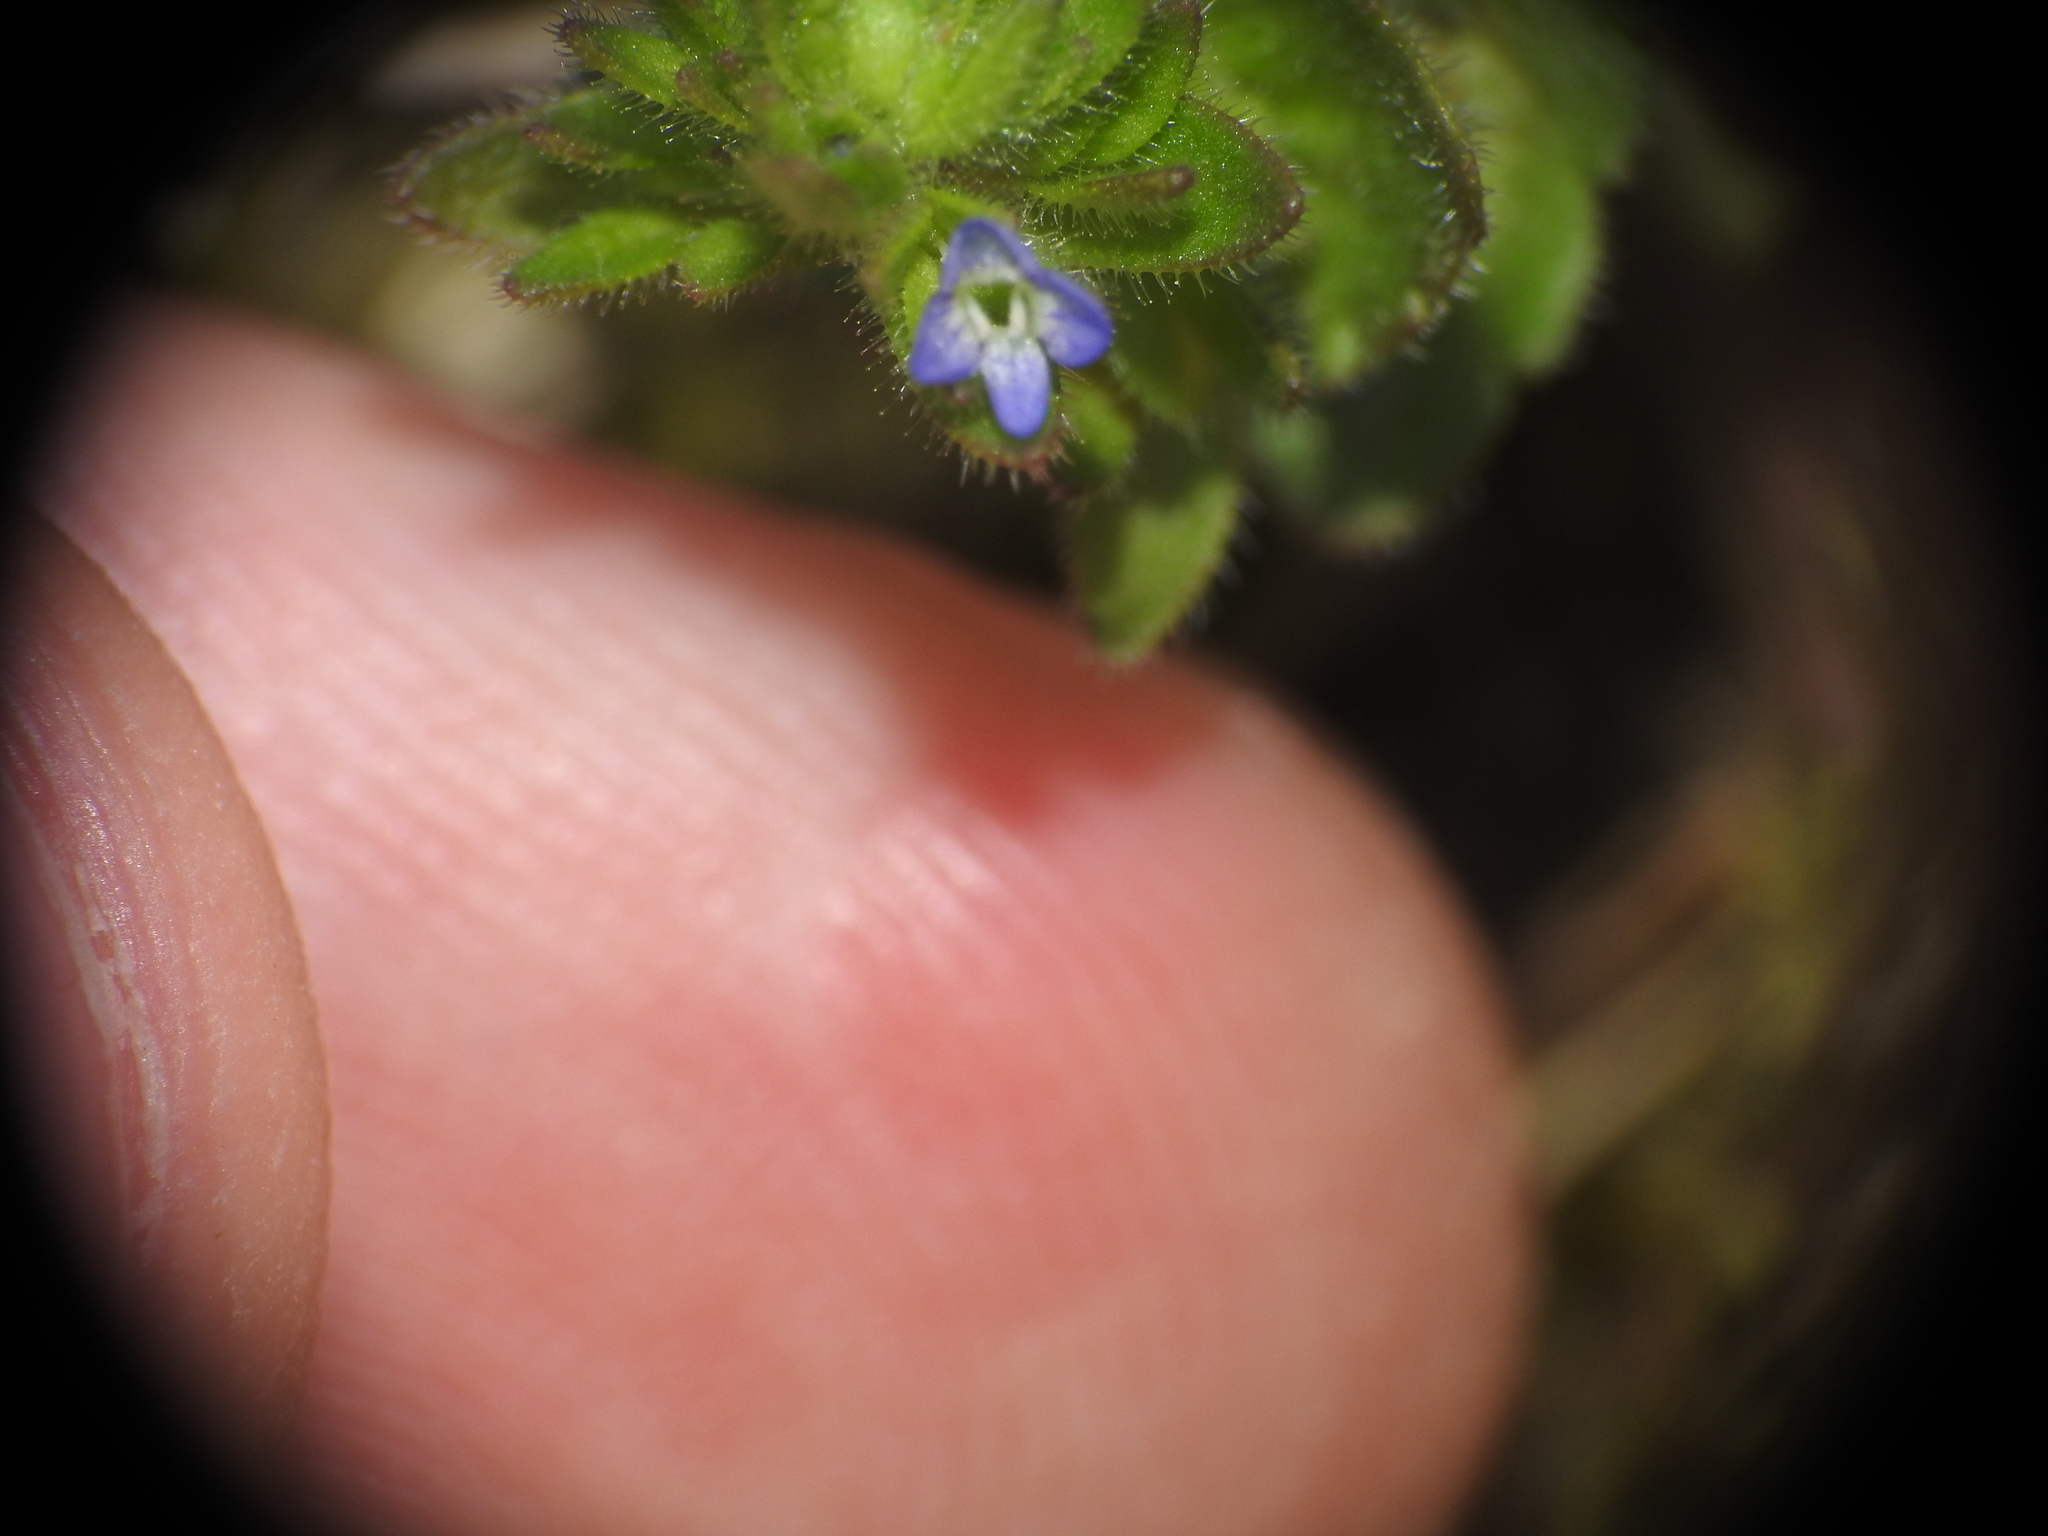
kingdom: Plantae
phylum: Tracheophyta
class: Magnoliopsida
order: Lamiales
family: Plantaginaceae
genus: Veronica
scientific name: Veronica arvensis
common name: Corn speedwell
